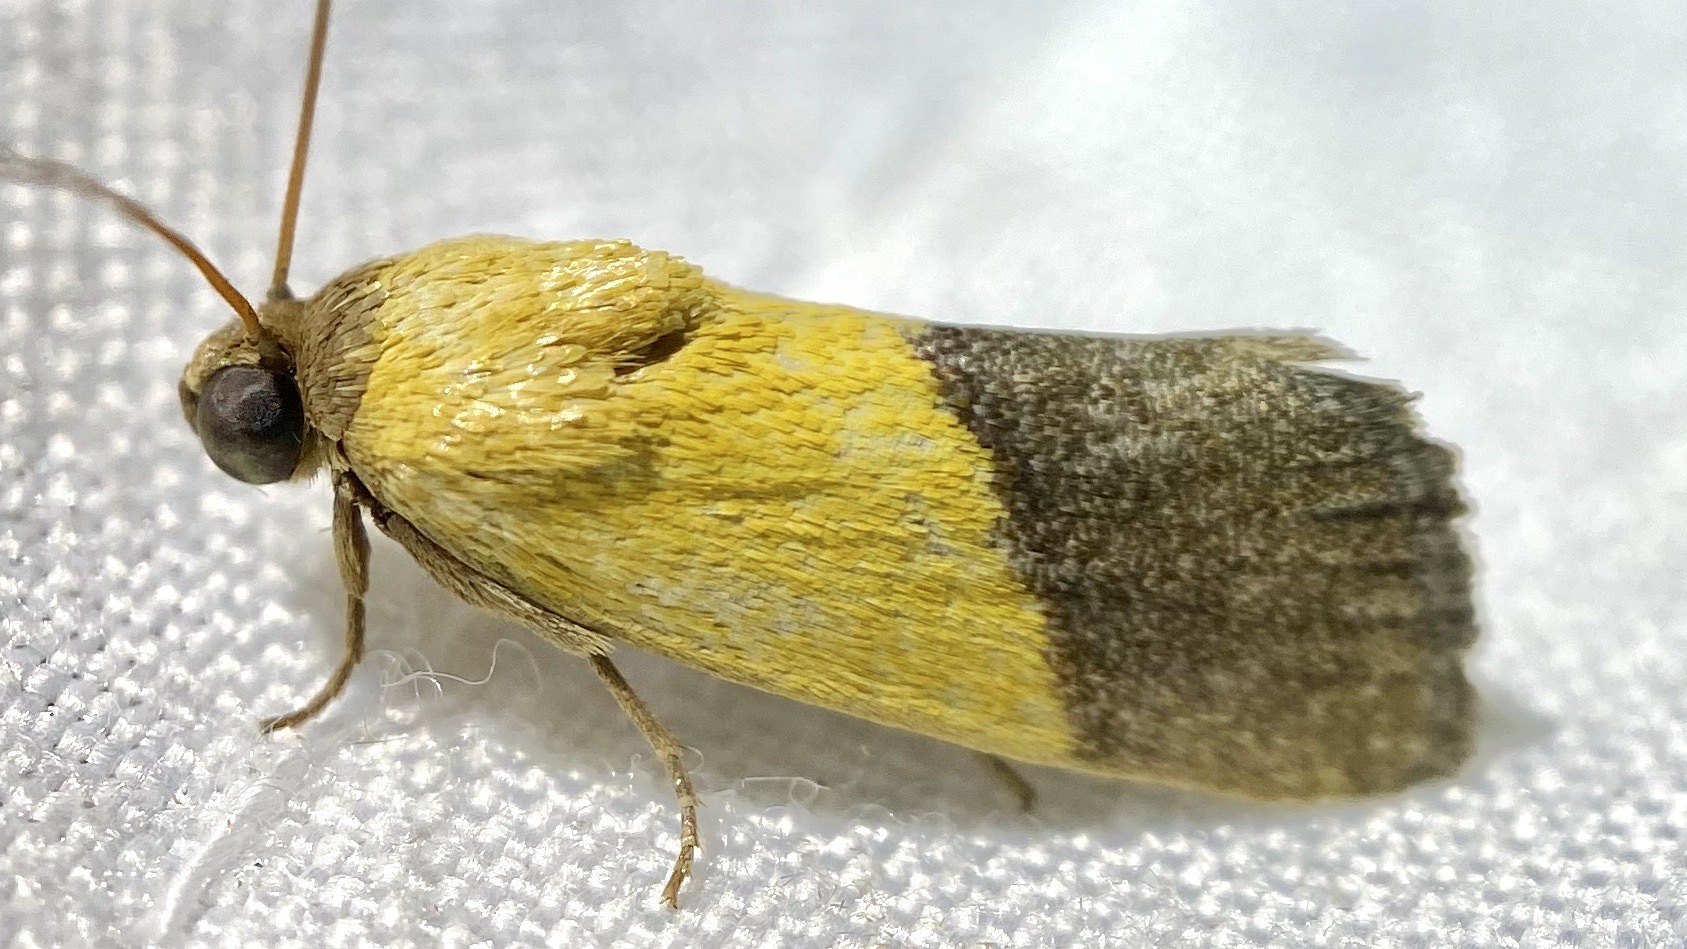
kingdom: Animalia
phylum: Arthropoda
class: Insecta
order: Lepidoptera
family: Noctuidae
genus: Acontia
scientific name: Acontia bicolorata
